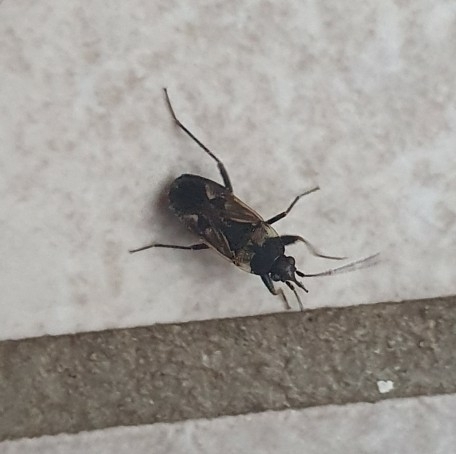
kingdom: Animalia
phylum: Arthropoda
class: Insecta
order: Hemiptera
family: Rhyparochromidae
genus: Rhyparochromus
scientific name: Rhyparochromus vulgaris
